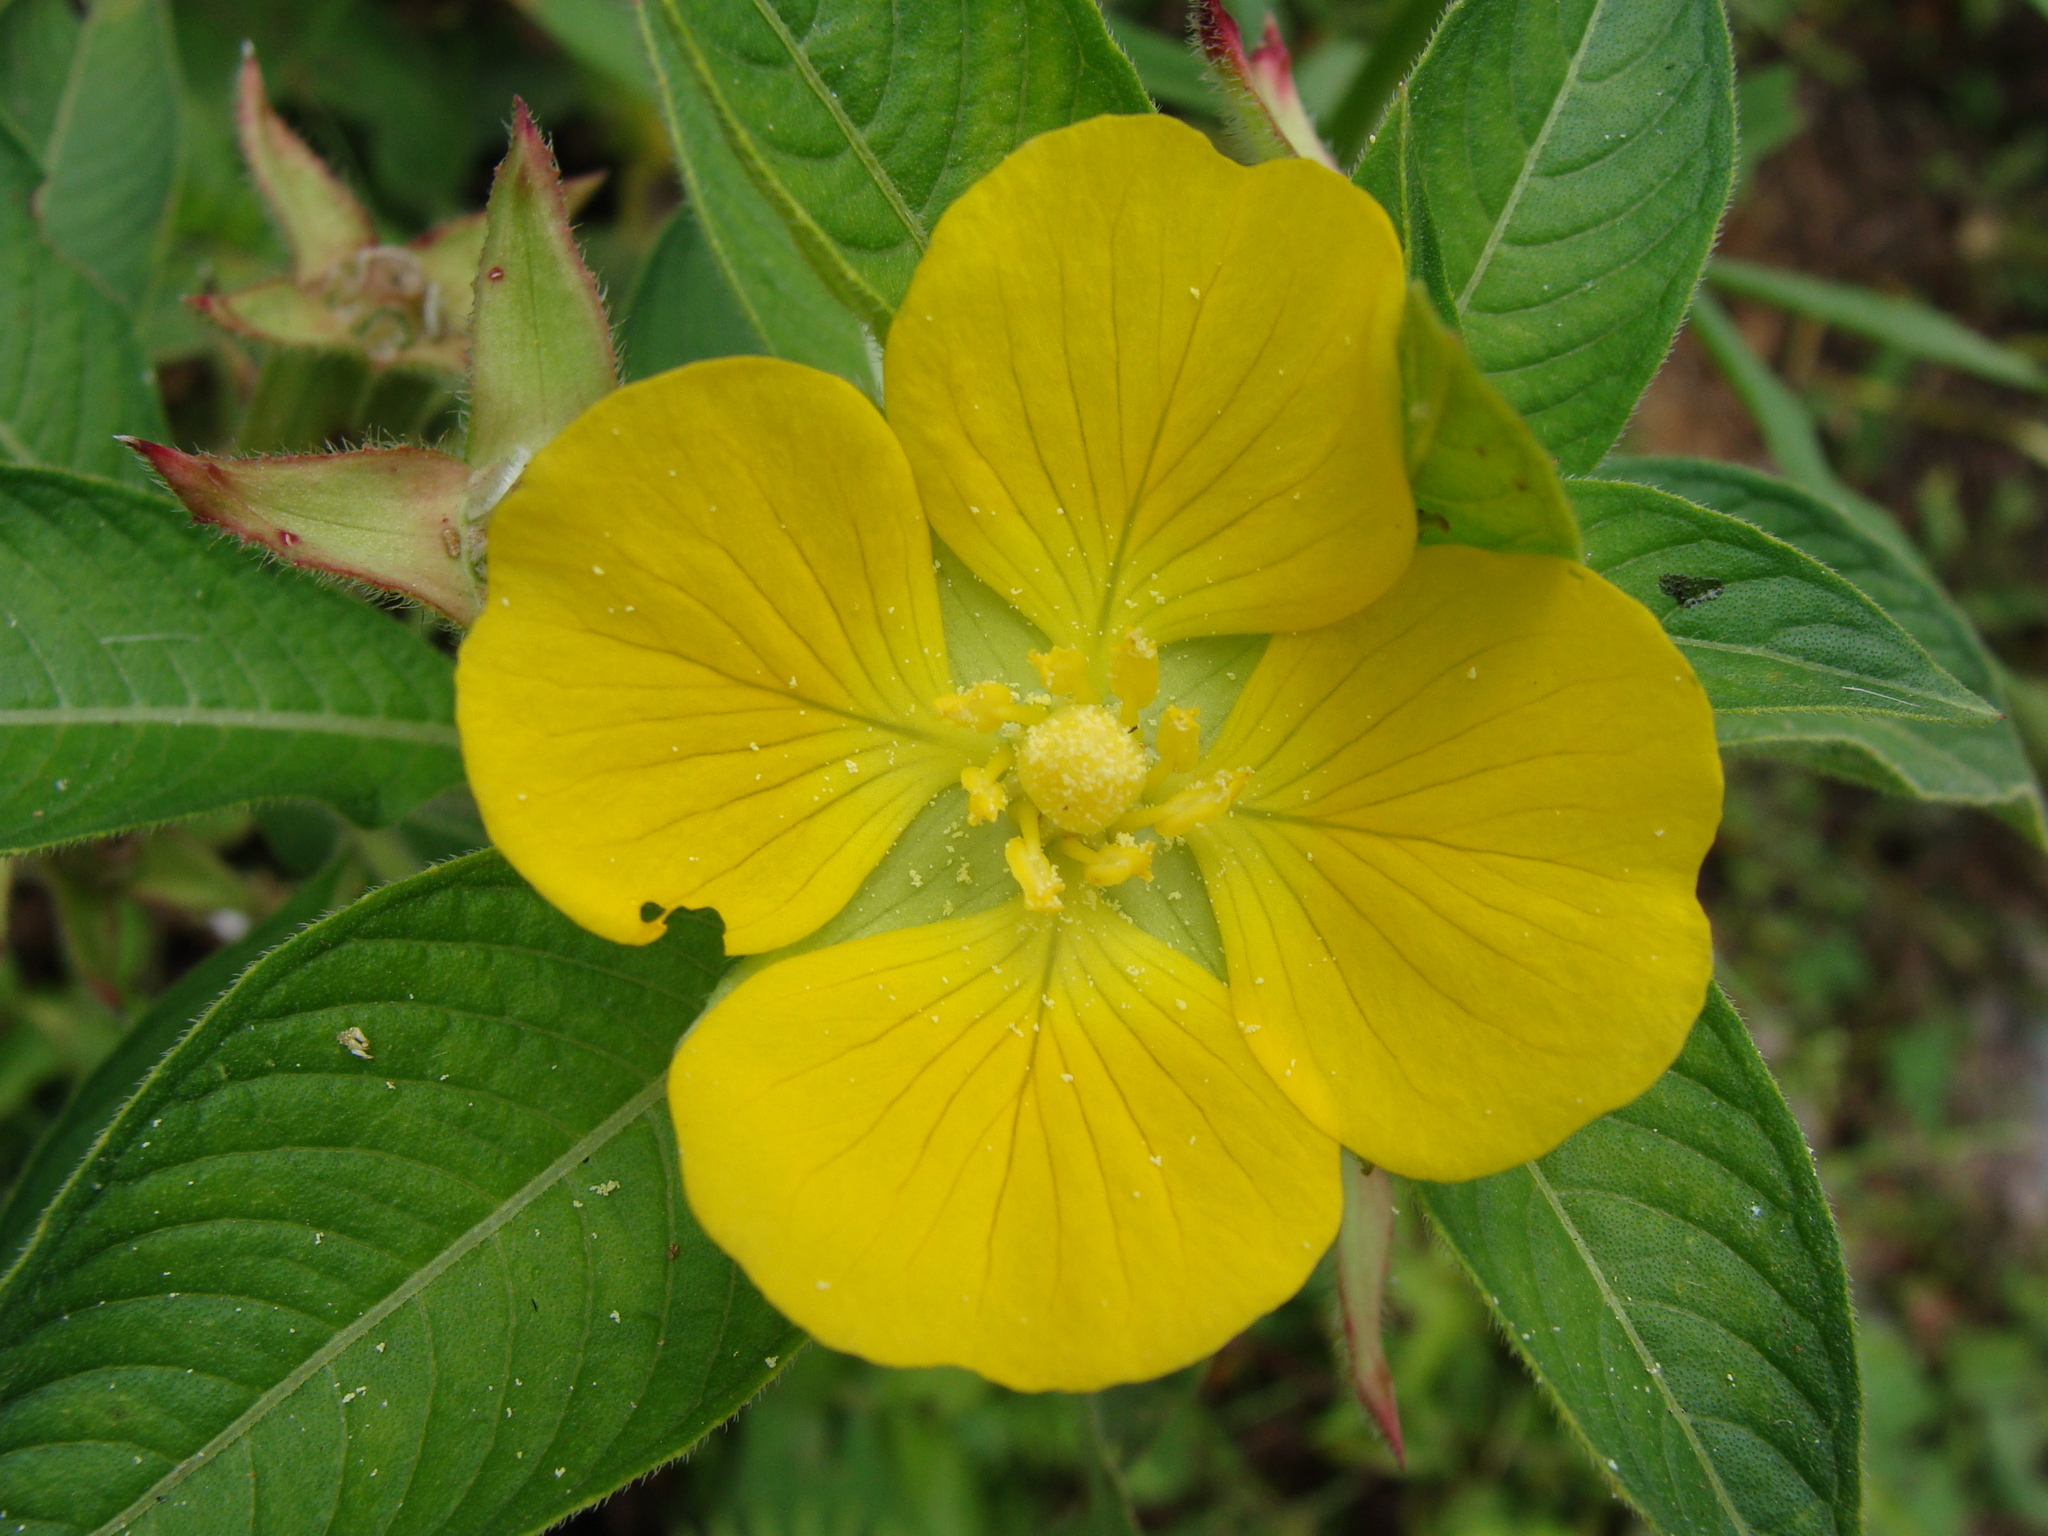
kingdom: Plantae
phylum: Tracheophyta
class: Magnoliopsida
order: Myrtales
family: Onagraceae
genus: Ludwigia
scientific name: Ludwigia peruviana
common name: Peruvian primrose-willow
